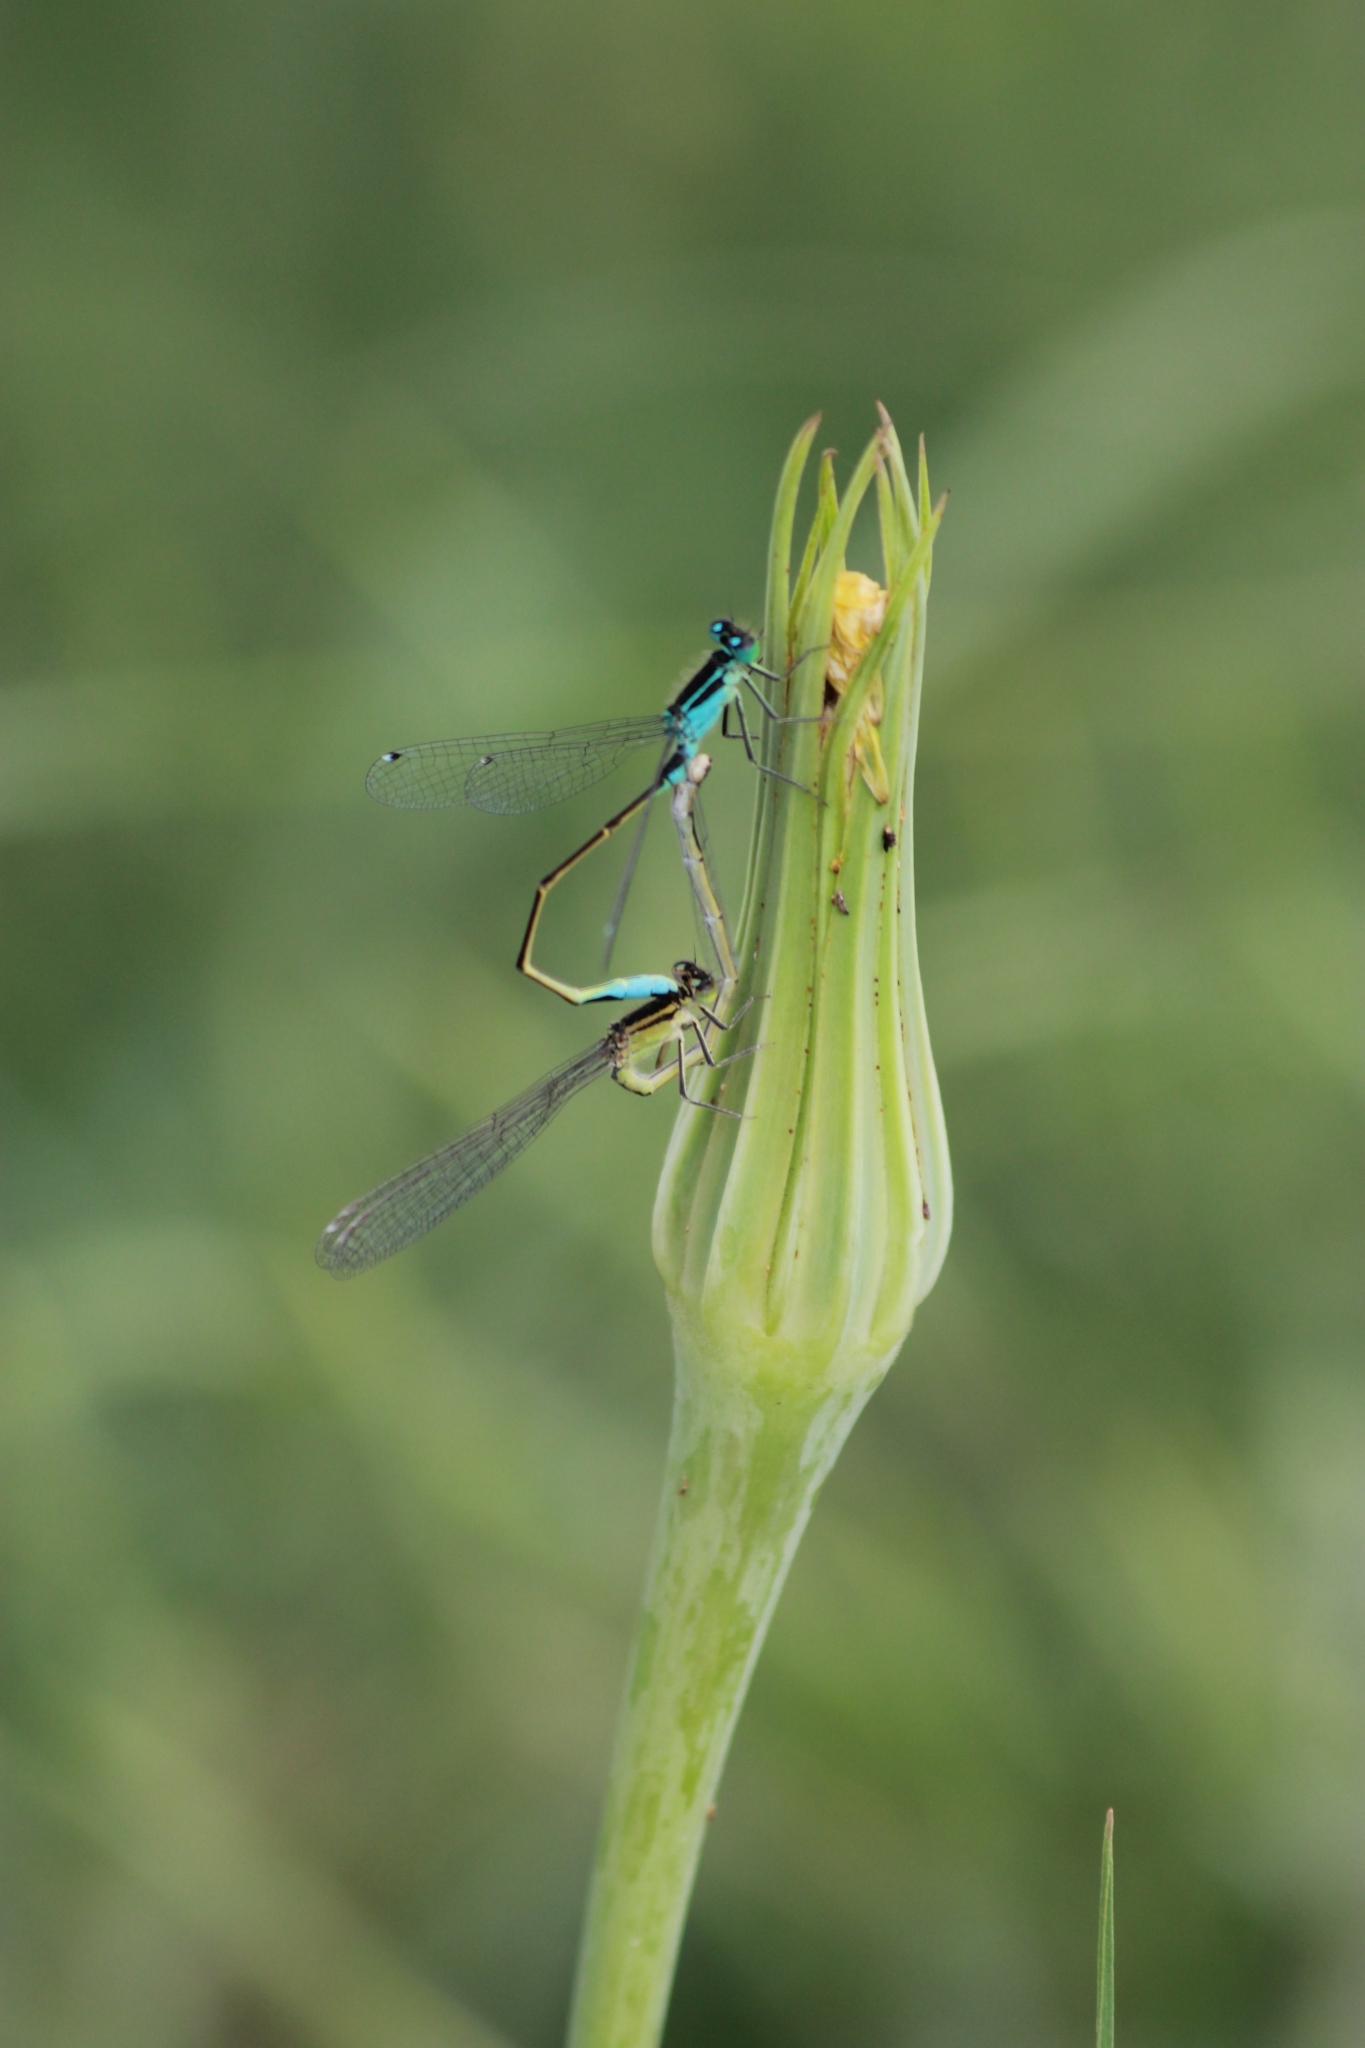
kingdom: Animalia
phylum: Arthropoda
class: Insecta
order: Odonata
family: Coenagrionidae
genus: Ischnura
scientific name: Ischnura elegans
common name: Blue-tailed damselfly
